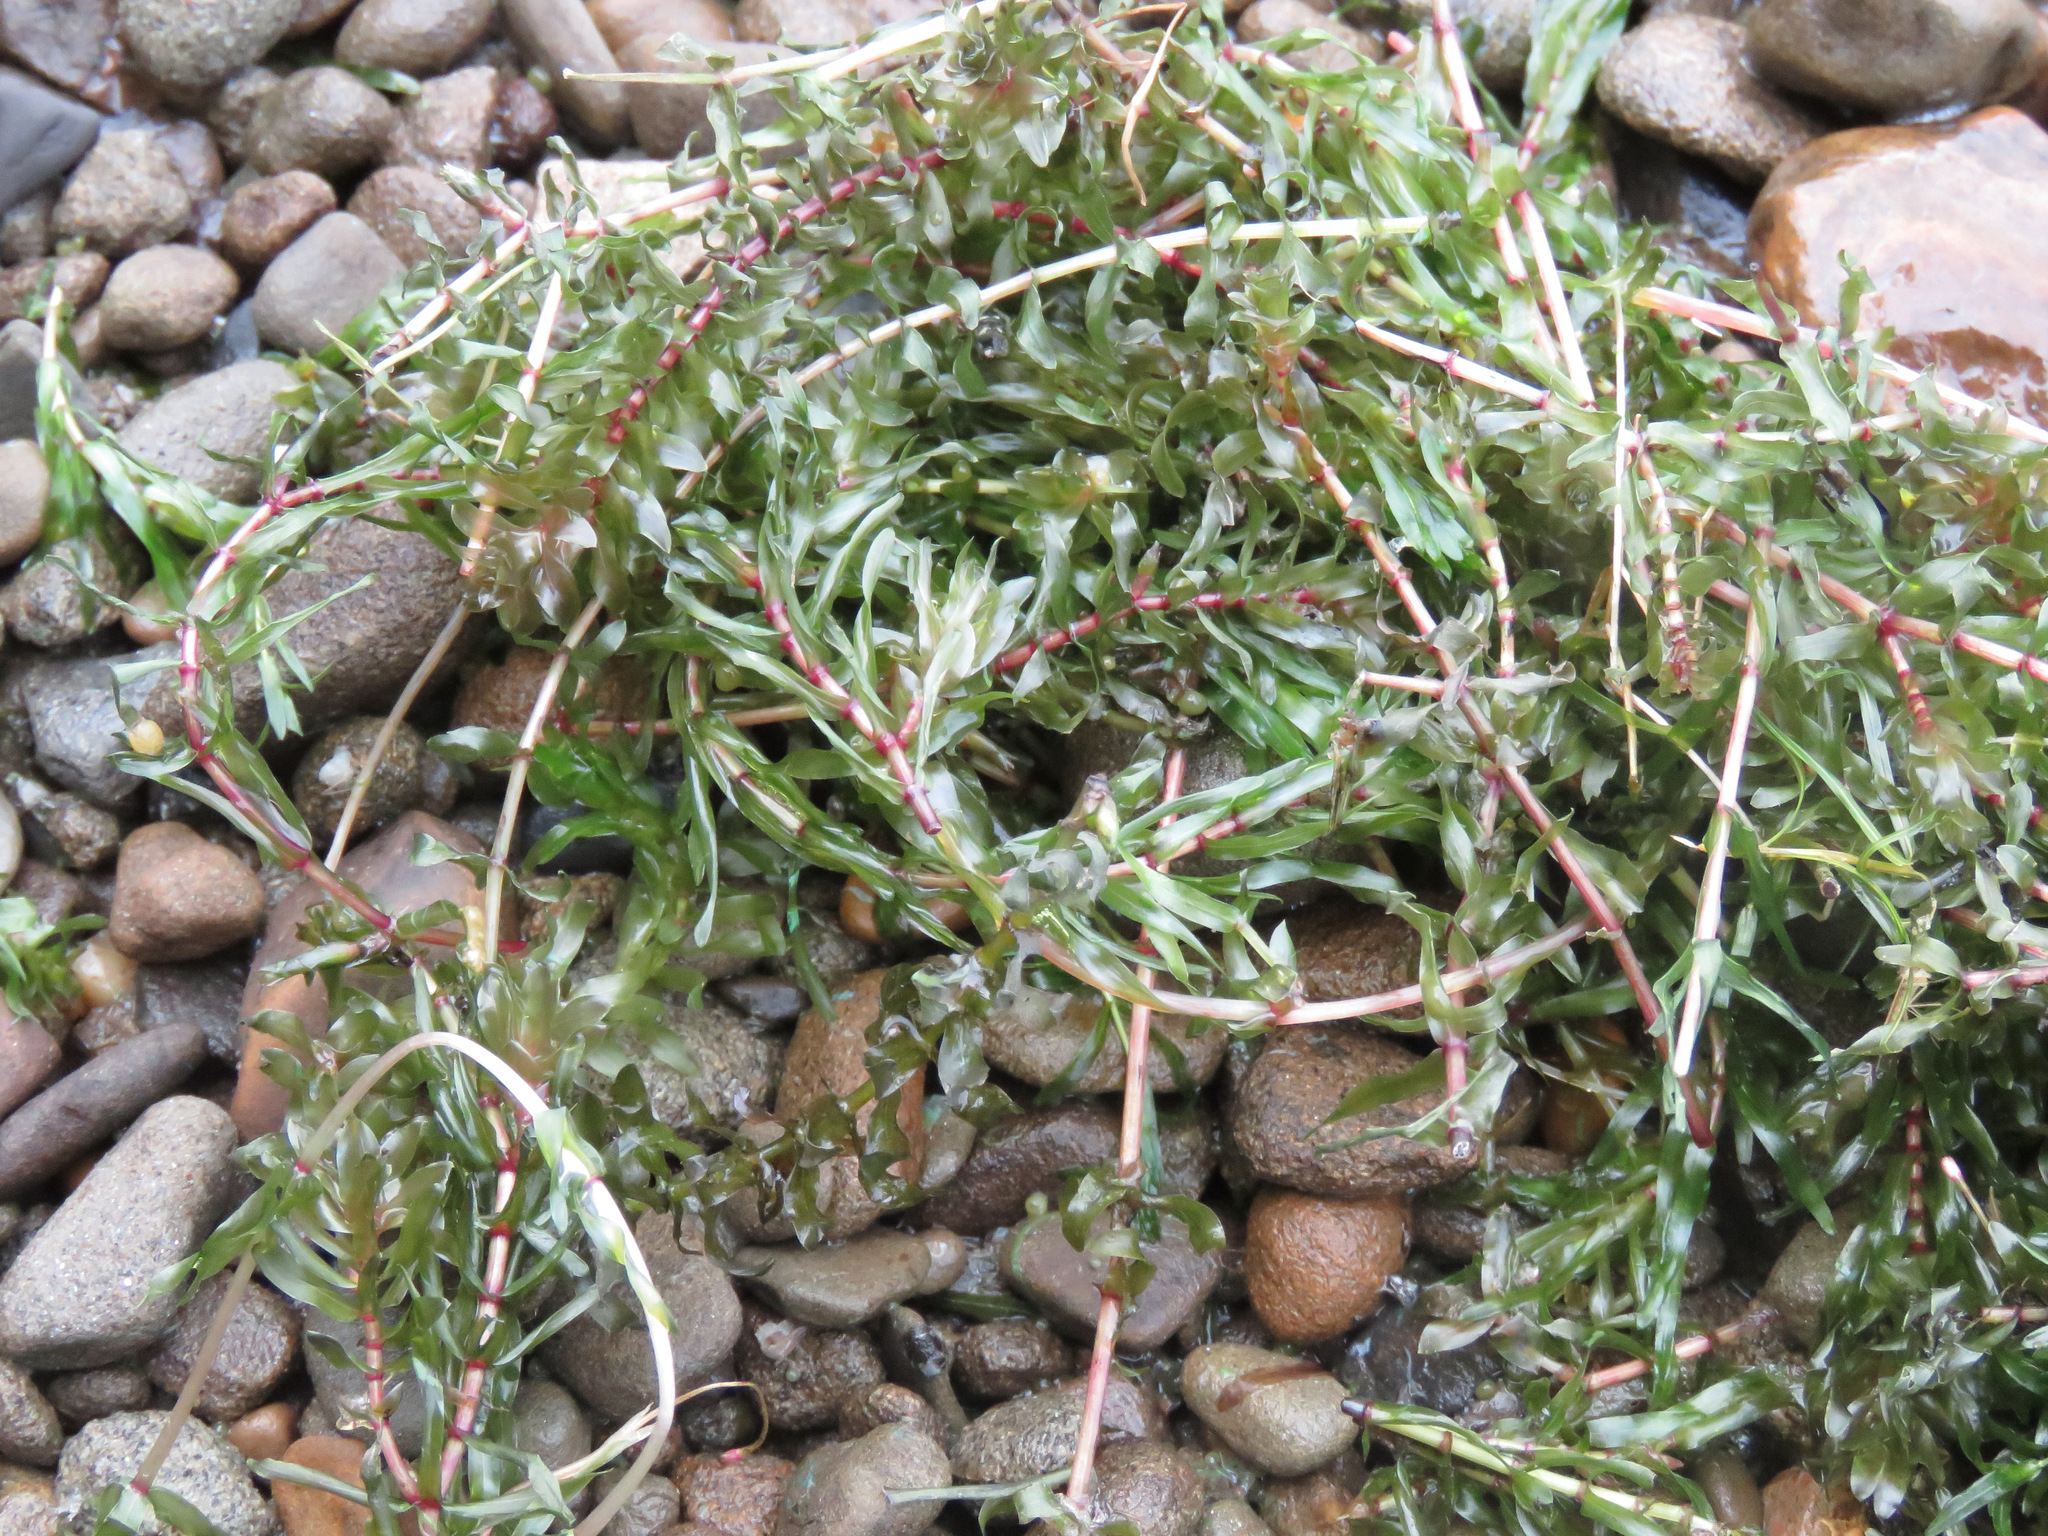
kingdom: Plantae
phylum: Tracheophyta
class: Liliopsida
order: Alismatales
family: Hydrocharitaceae
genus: Elodea
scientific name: Elodea canadensis
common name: Canadian waterweed
